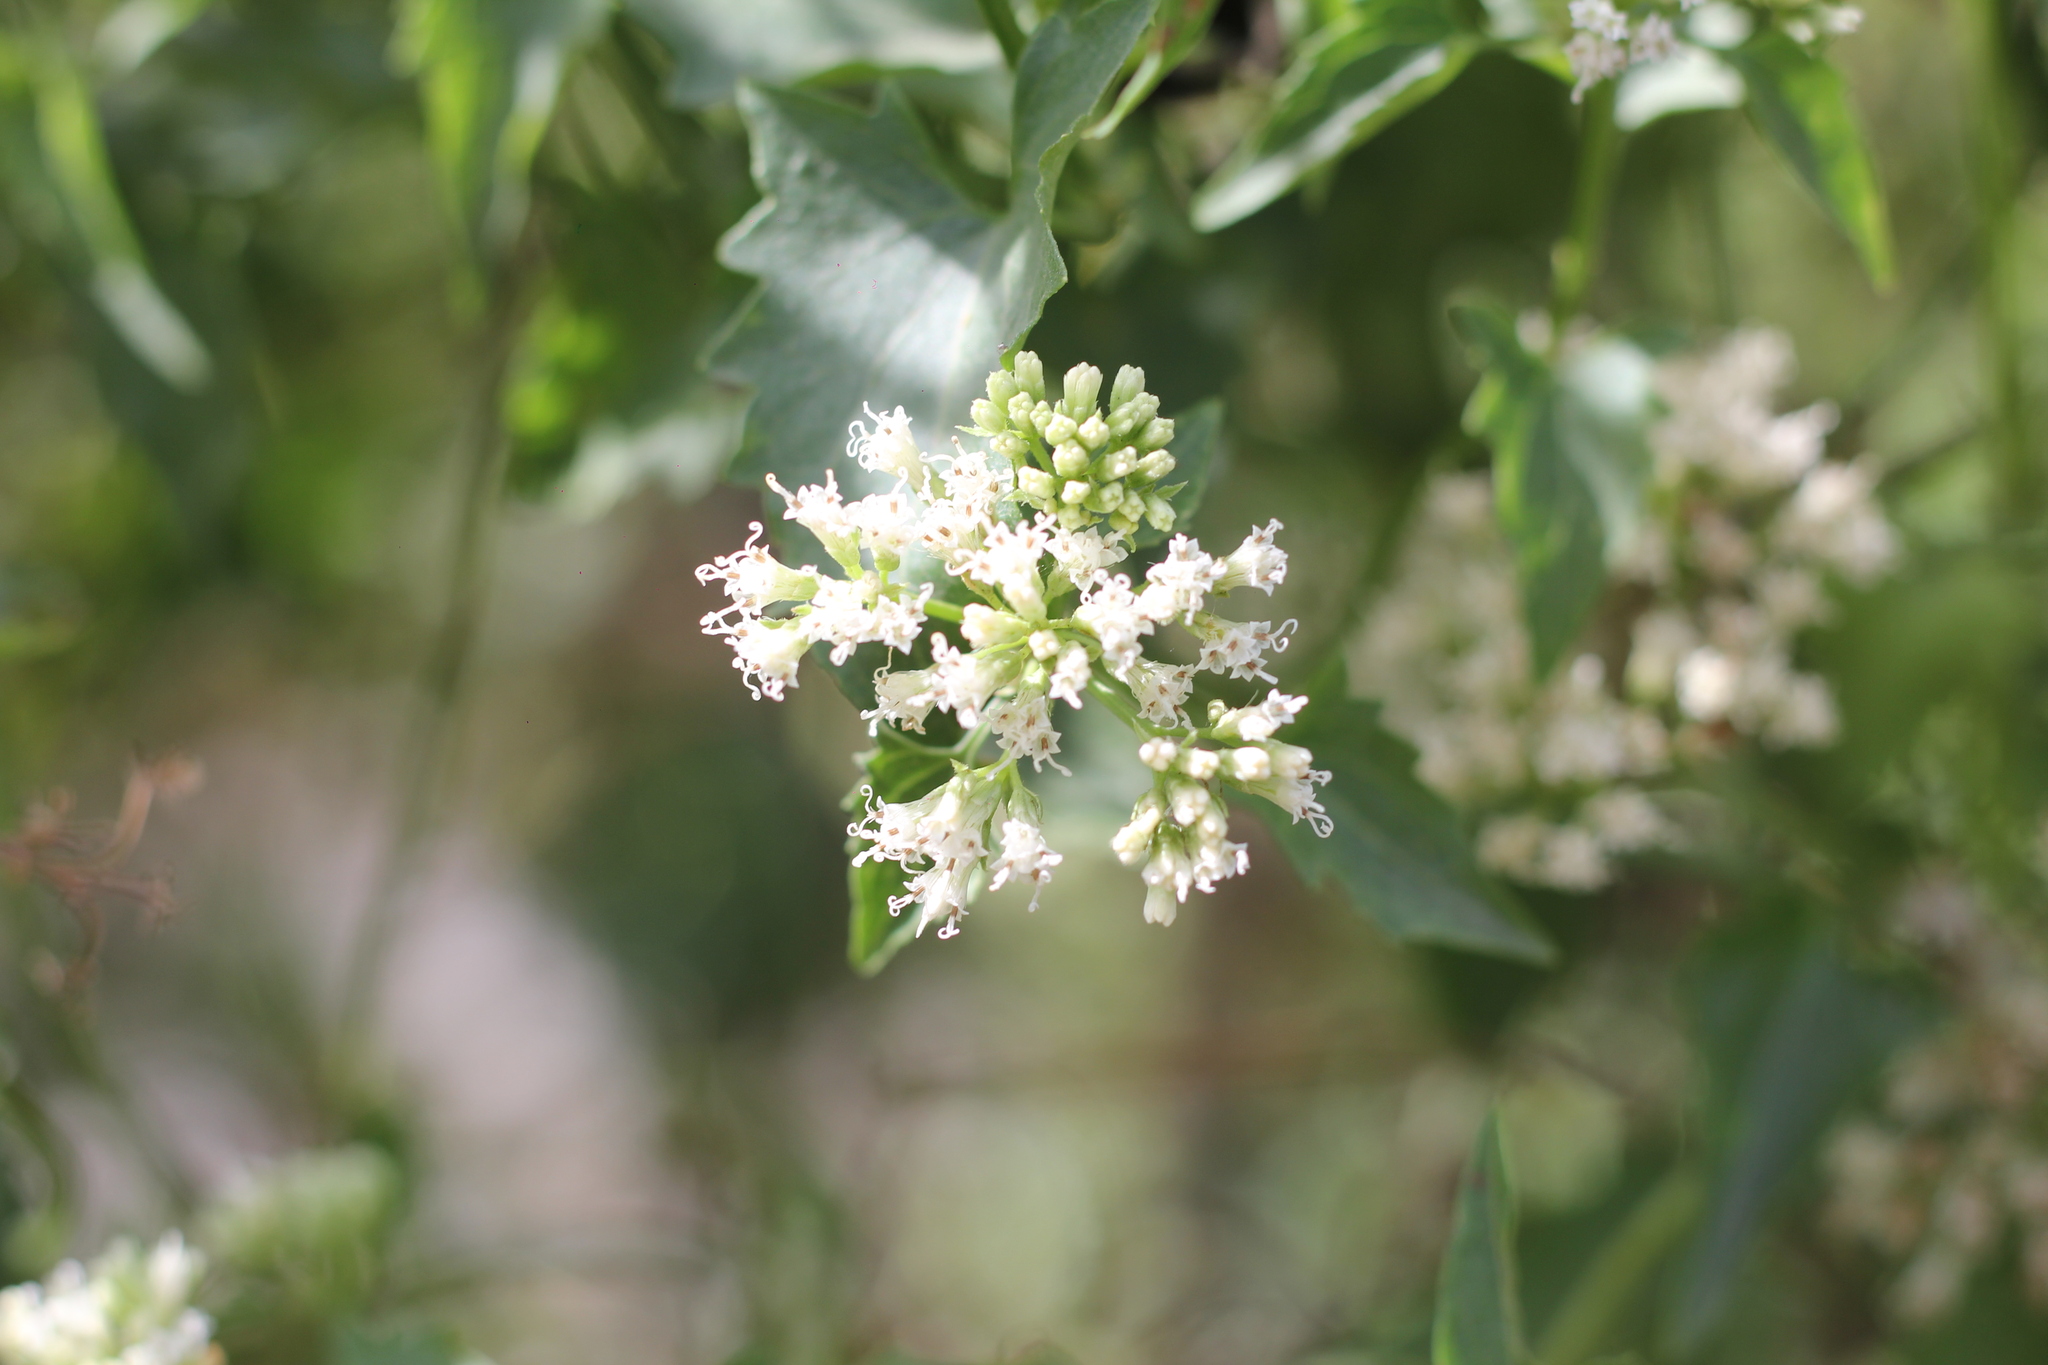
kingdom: Plantae
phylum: Tracheophyta
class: Magnoliopsida
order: Asterales
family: Asteraceae
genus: Mikania
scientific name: Mikania micrantha
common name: Mile-a-minute
